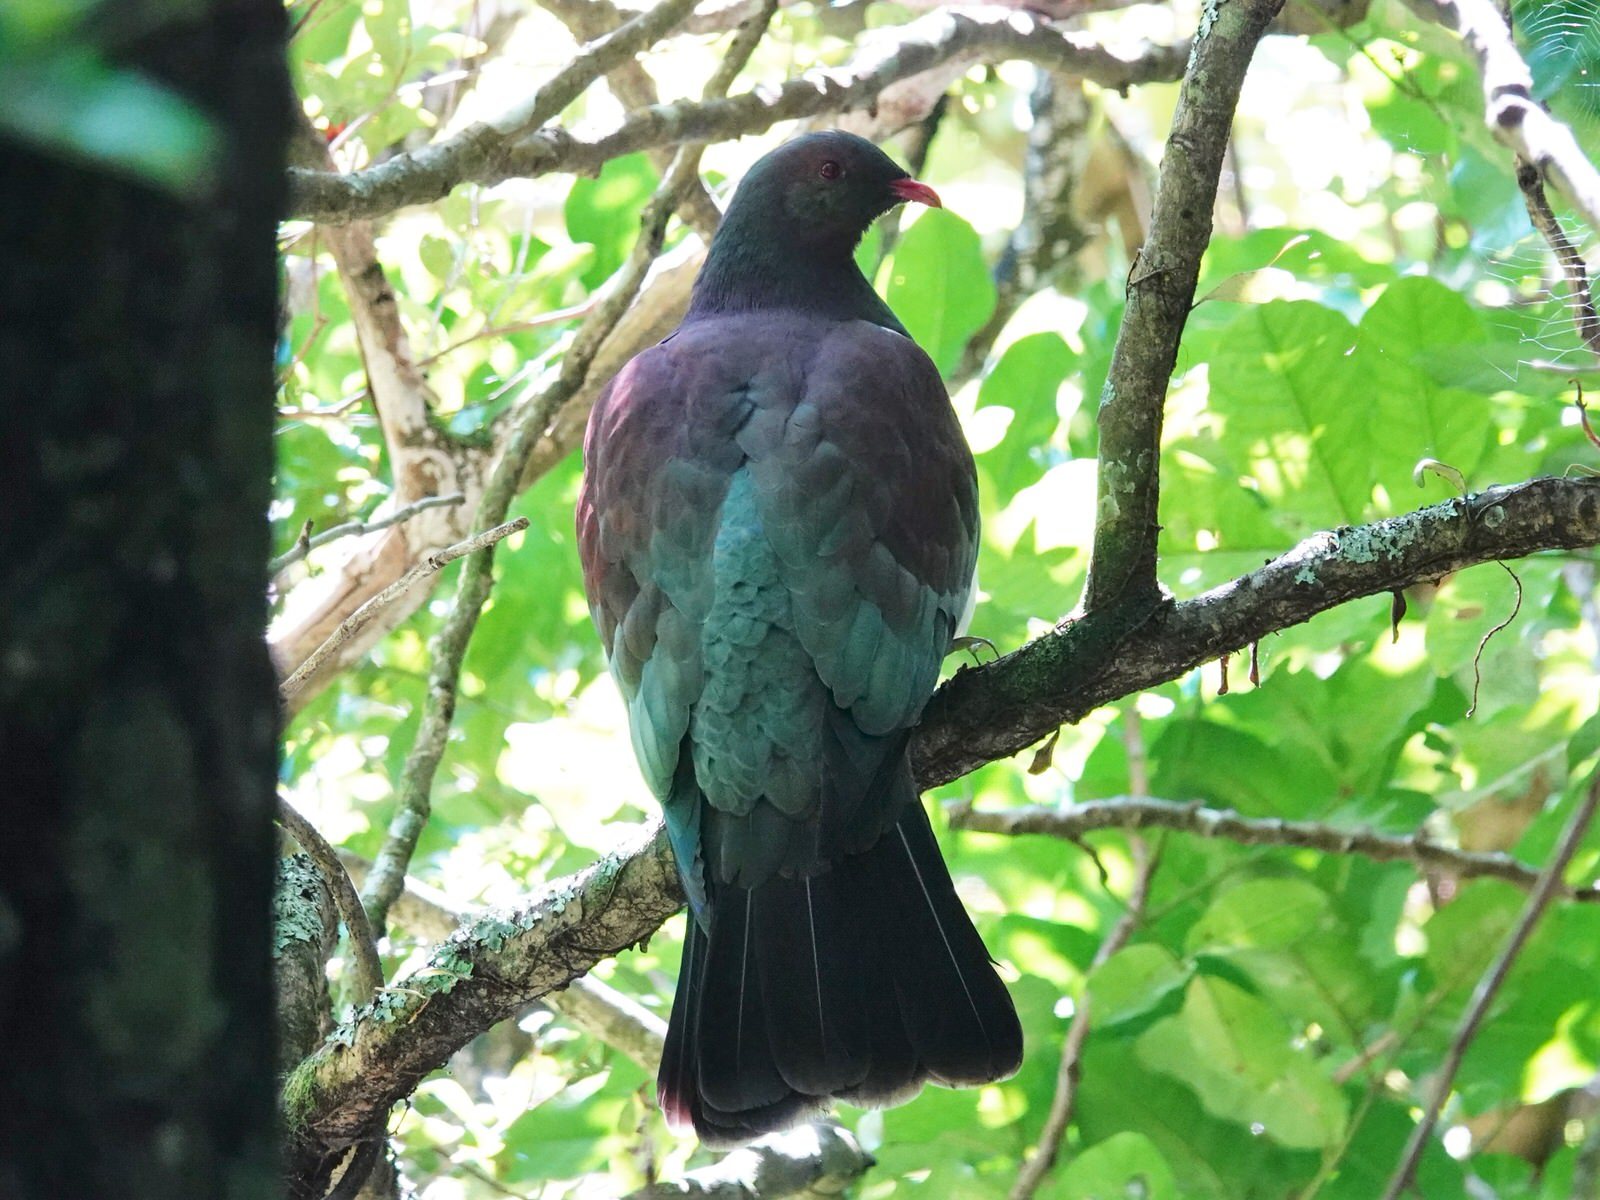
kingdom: Animalia
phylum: Chordata
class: Aves
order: Columbiformes
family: Columbidae
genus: Hemiphaga
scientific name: Hemiphaga novaeseelandiae
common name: New zealand pigeon
